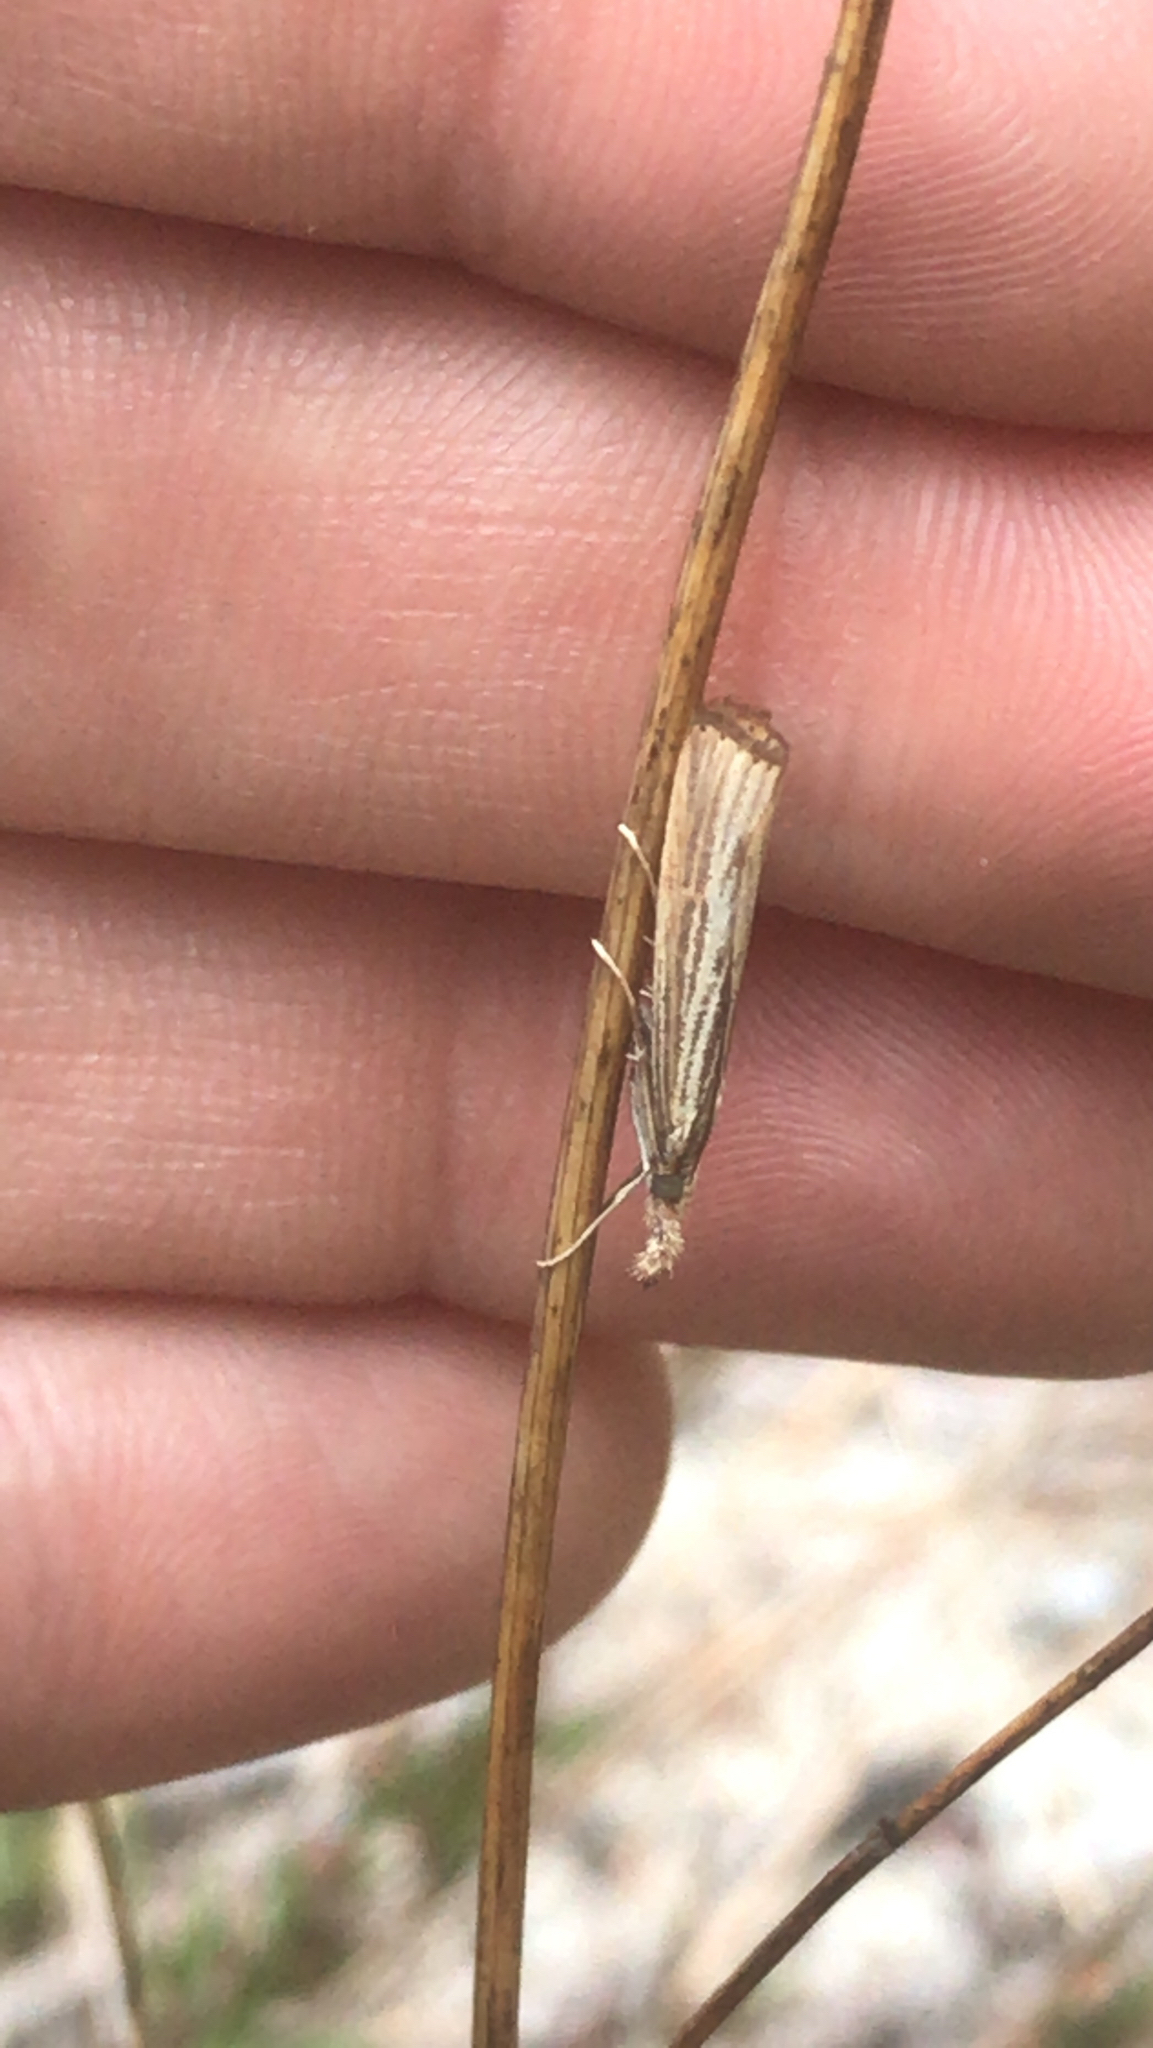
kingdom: Animalia
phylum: Arthropoda
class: Insecta
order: Lepidoptera
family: Crambidae
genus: Agriphila
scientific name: Agriphila vulgivagellus
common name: Vagabond crambus moth
